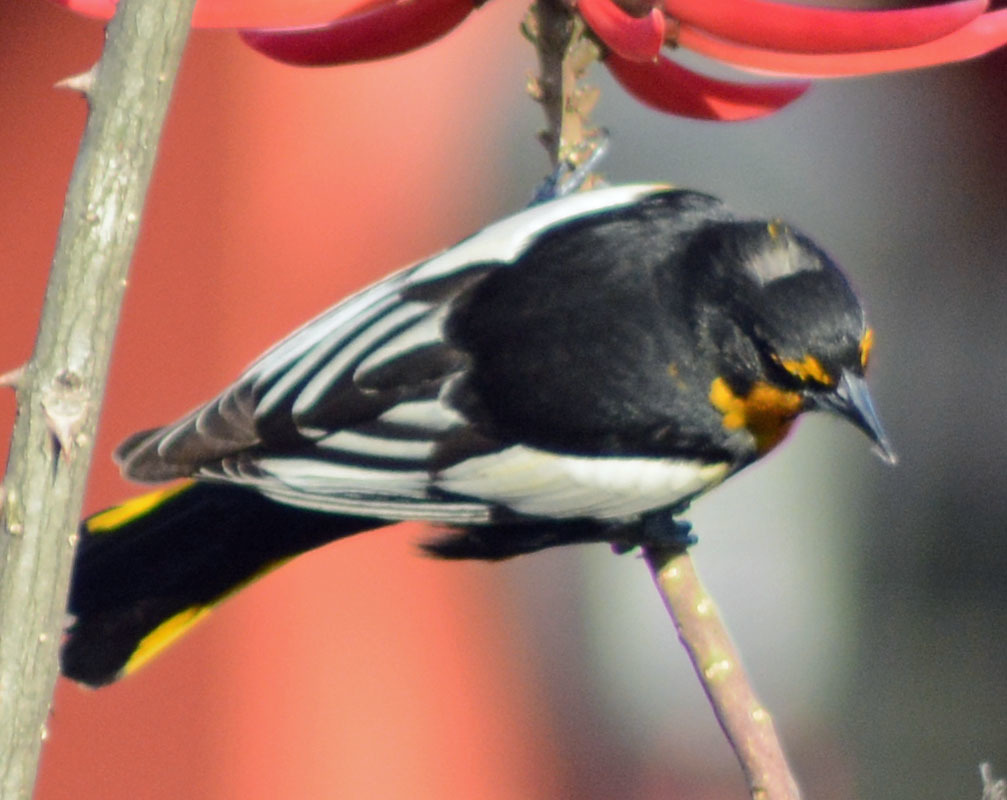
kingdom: Animalia
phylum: Chordata
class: Aves
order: Passeriformes
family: Icteridae
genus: Icterus
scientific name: Icterus abeillei
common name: Black-backed oriole
